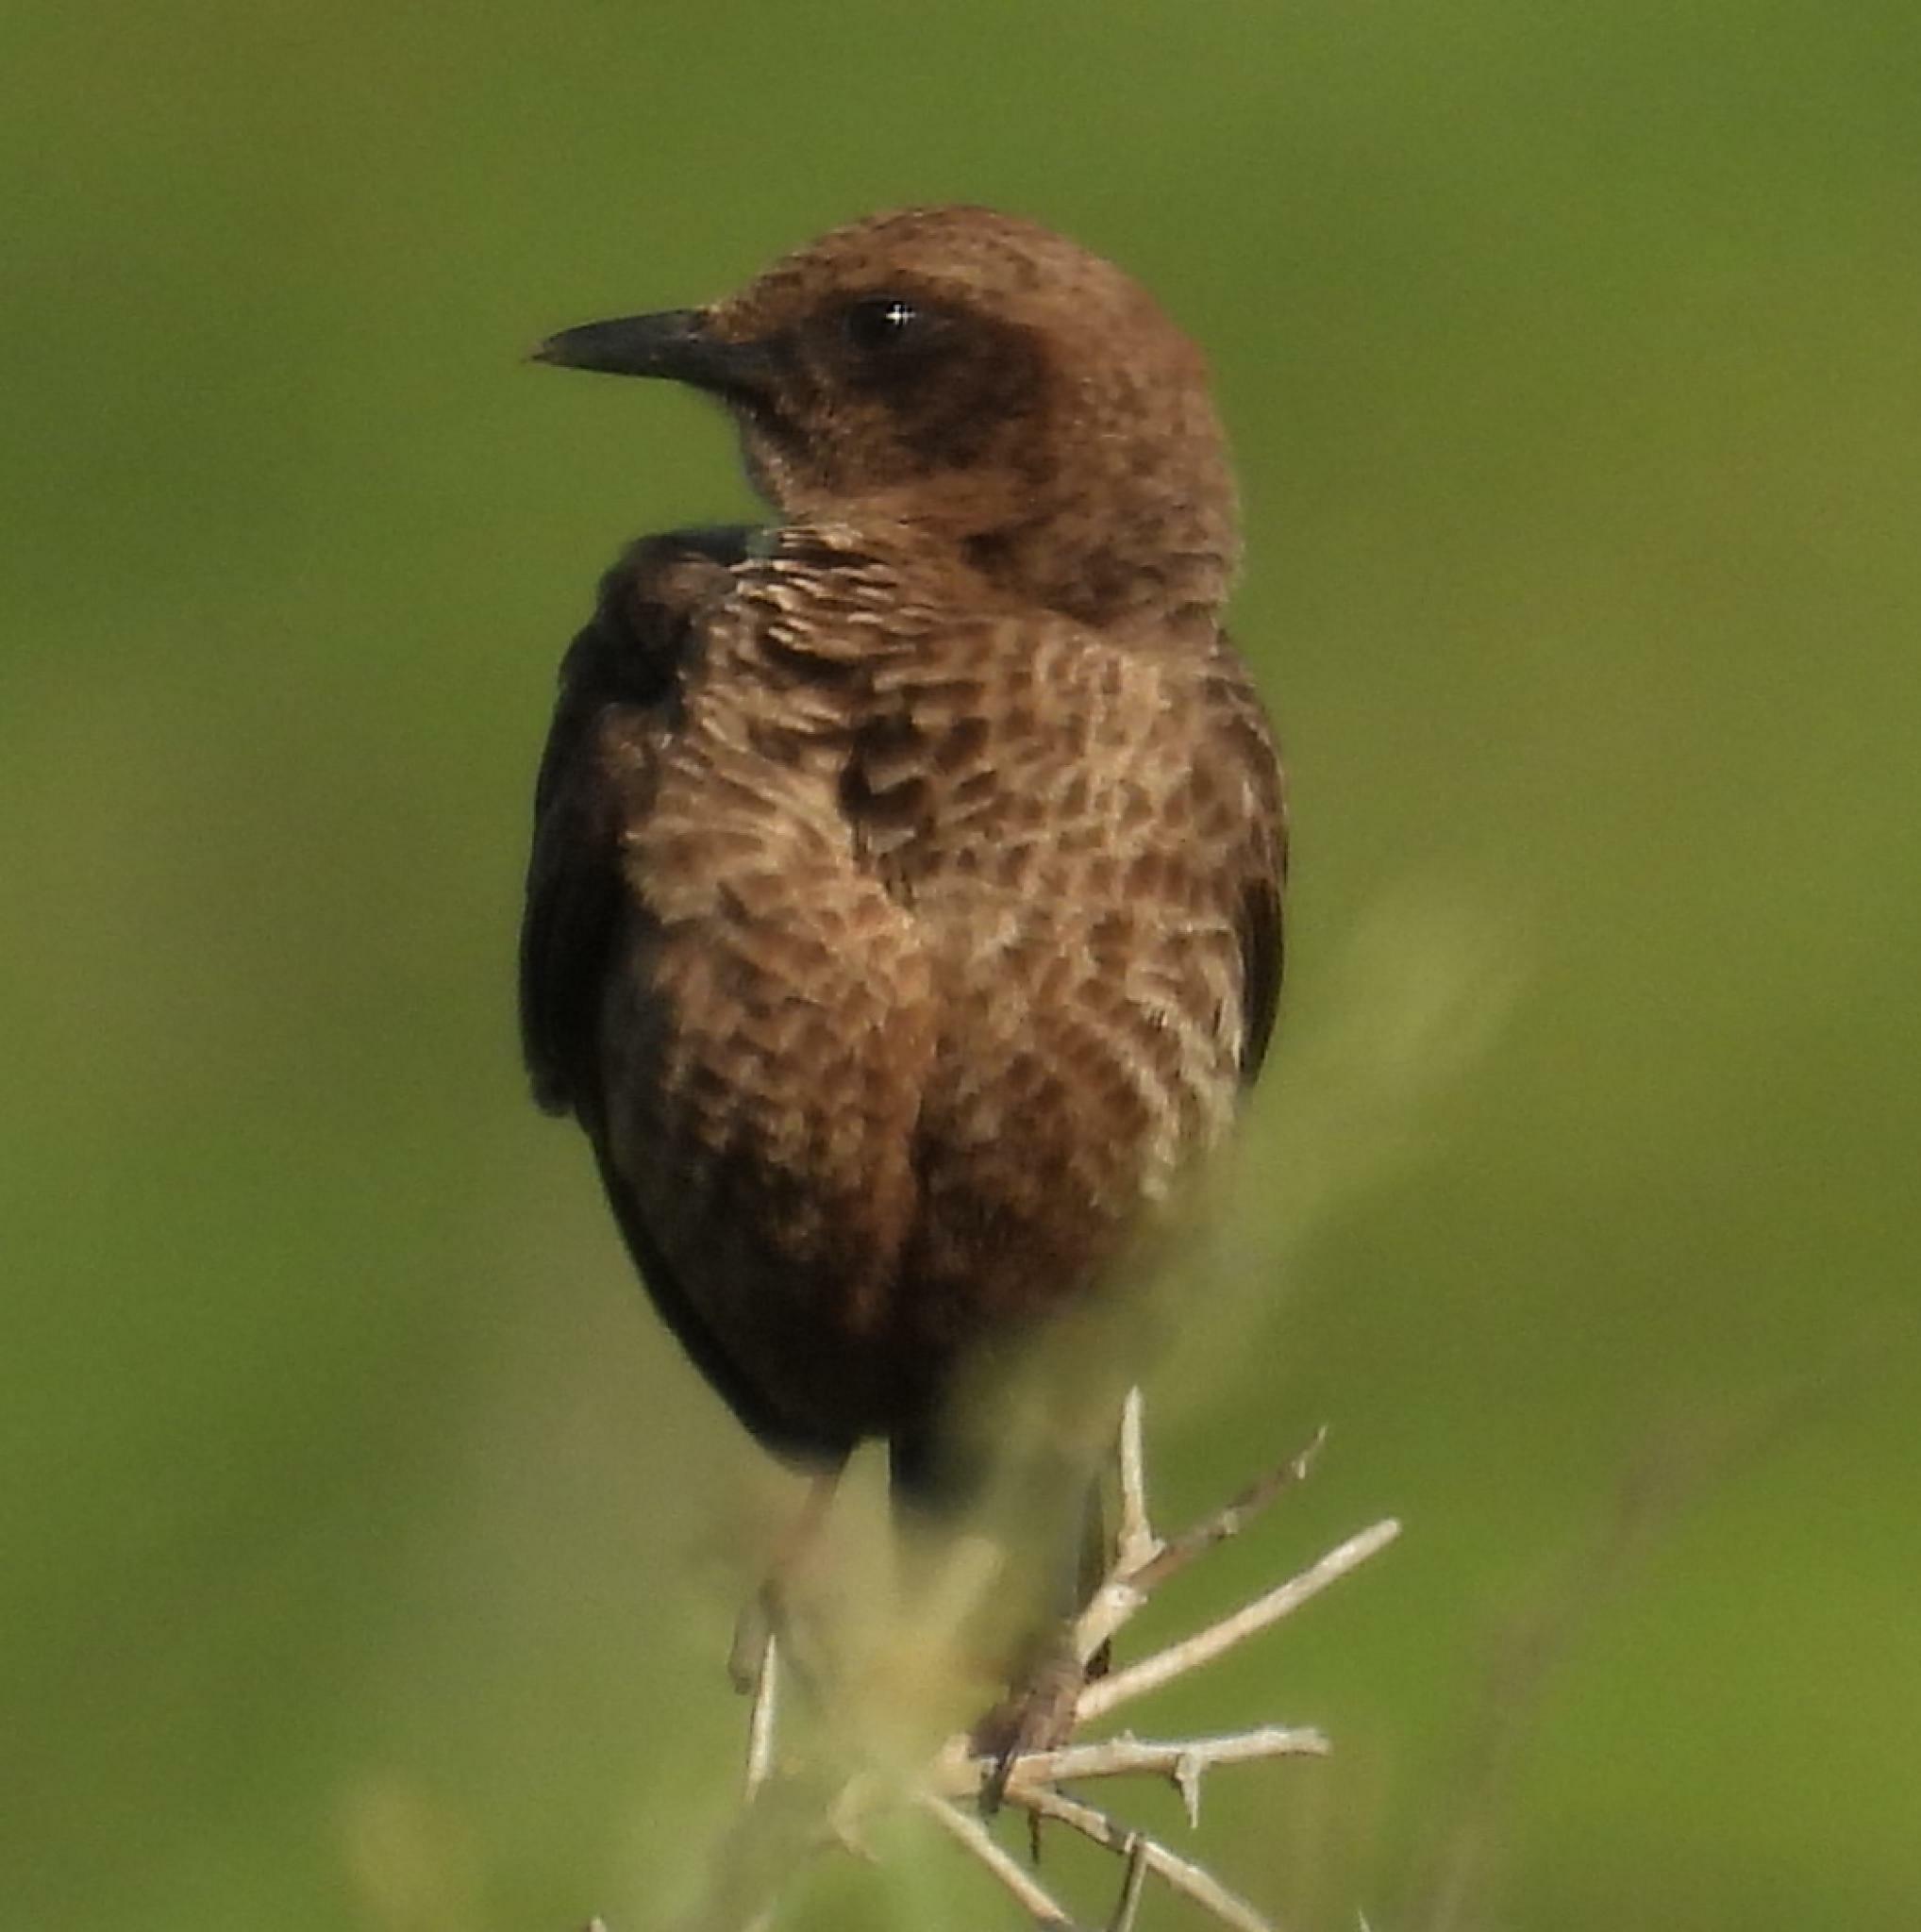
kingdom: Animalia
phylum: Chordata
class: Aves
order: Passeriformes
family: Muscicapidae
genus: Myrmecocichla
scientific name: Myrmecocichla formicivora
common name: Ant-eating chat
